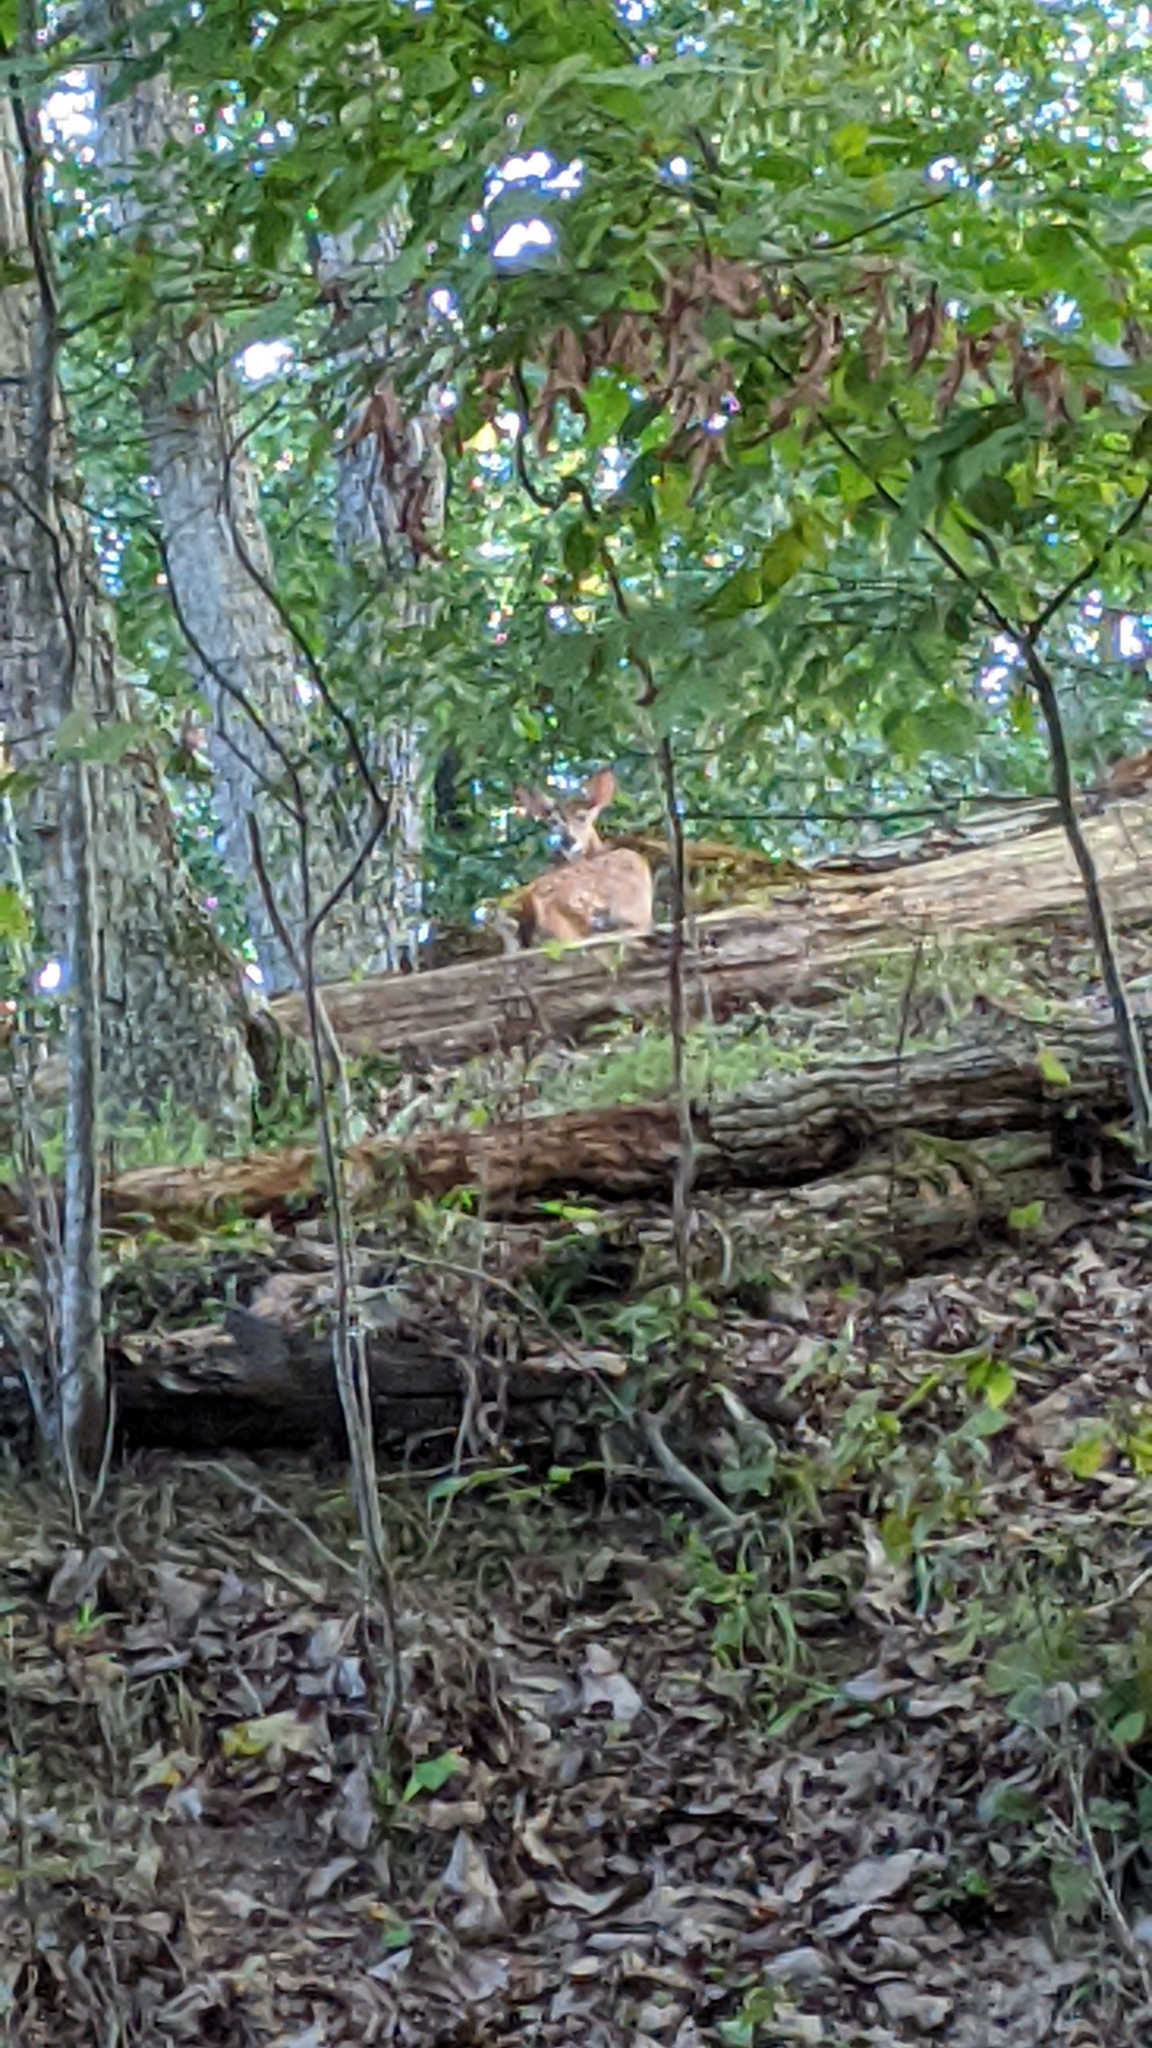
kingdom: Animalia
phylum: Chordata
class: Mammalia
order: Artiodactyla
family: Cervidae
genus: Odocoileus
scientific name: Odocoileus virginianus
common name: White-tailed deer
